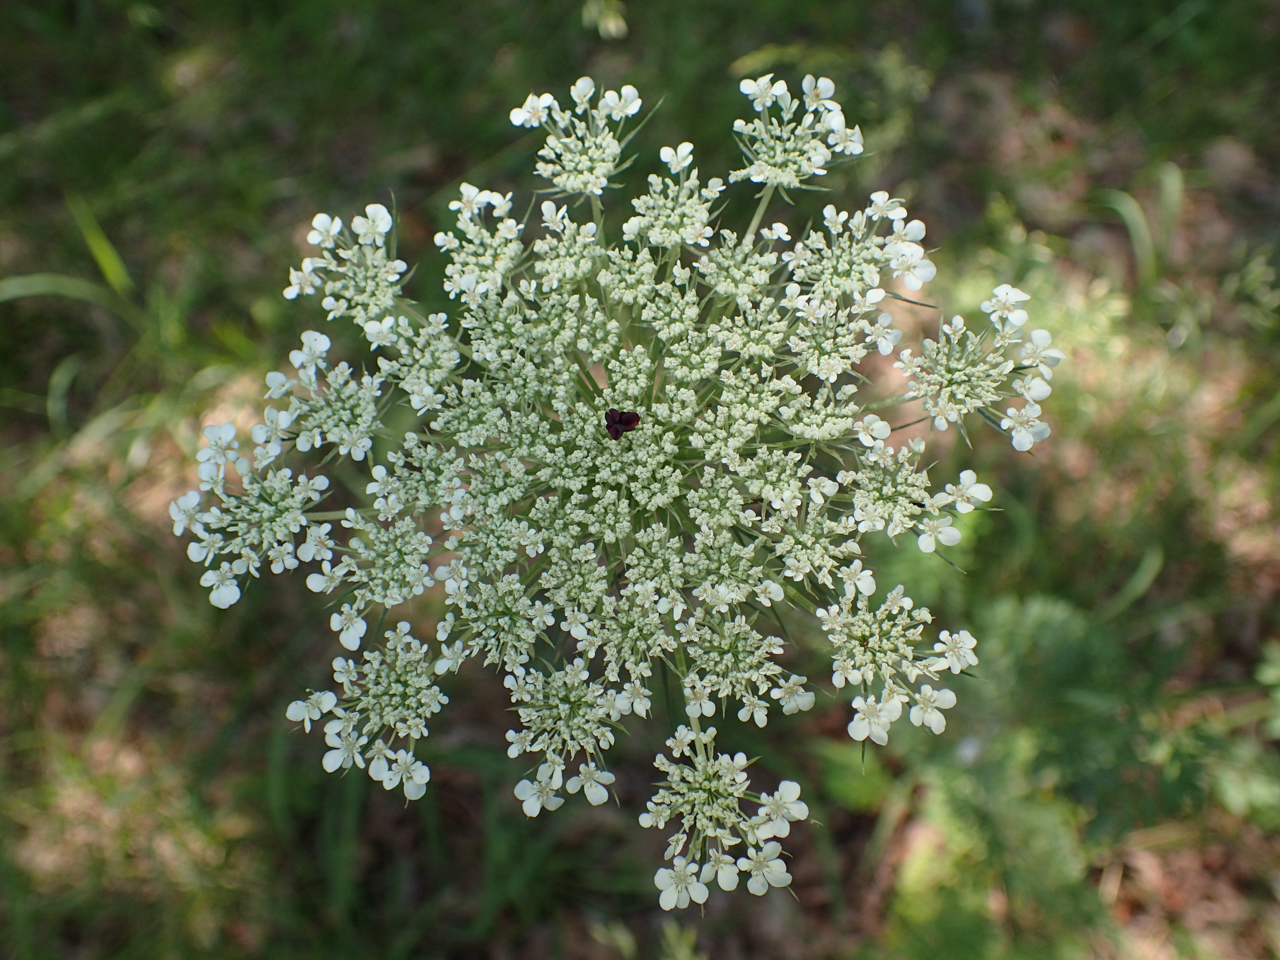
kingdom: Plantae
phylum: Tracheophyta
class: Magnoliopsida
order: Apiales
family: Apiaceae
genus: Daucus
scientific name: Daucus carota
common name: Wild carrot
